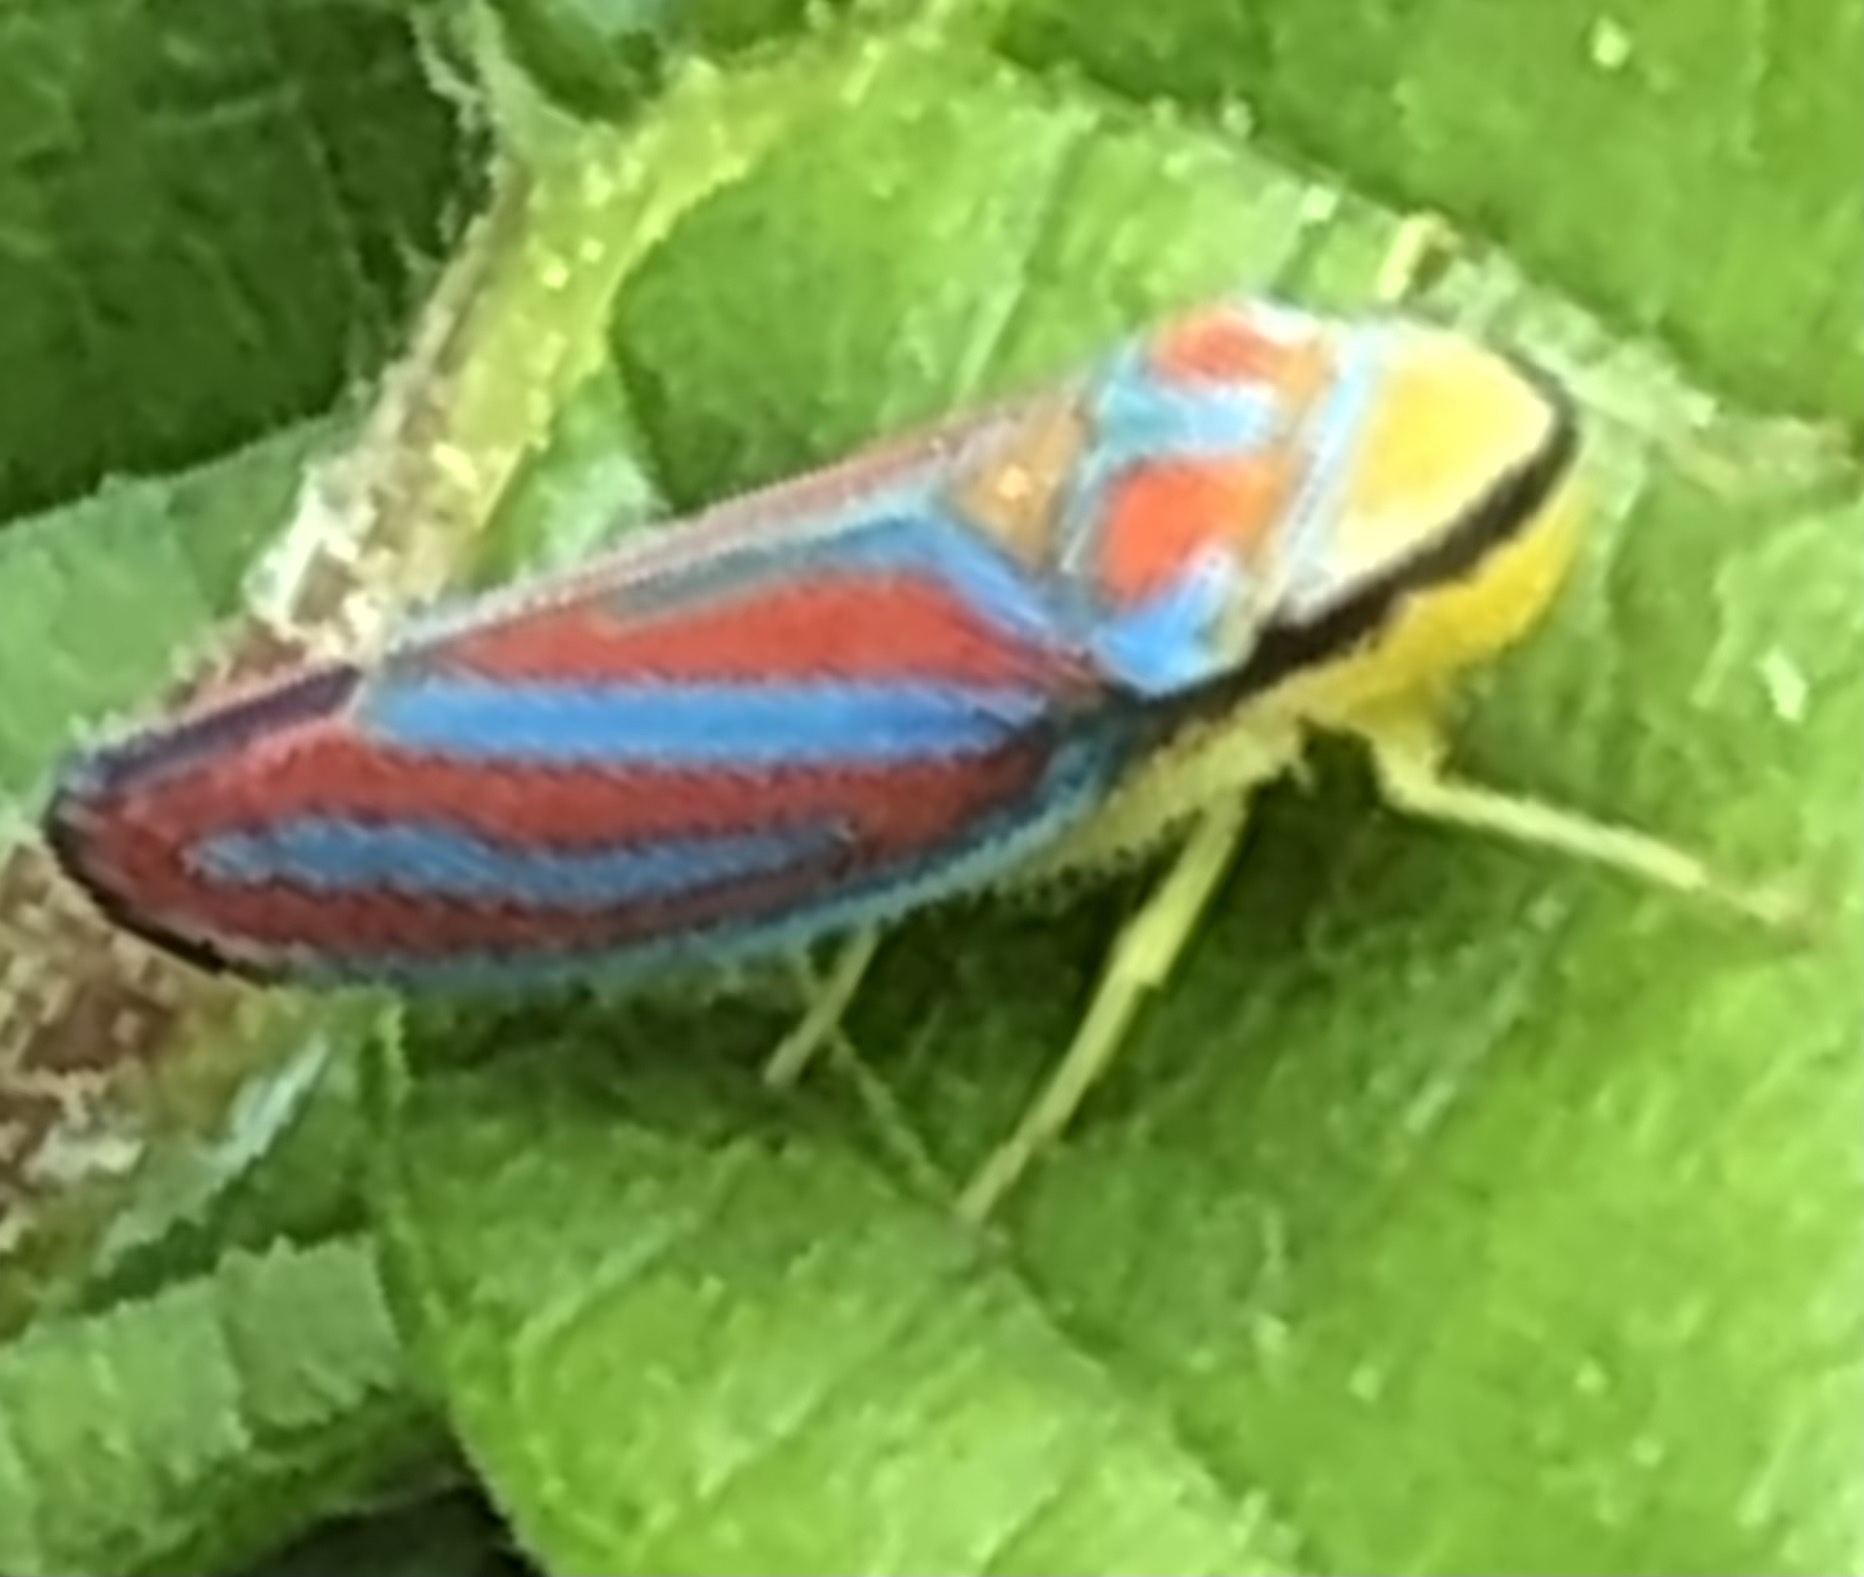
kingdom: Animalia
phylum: Arthropoda
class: Insecta
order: Hemiptera
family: Cicadellidae
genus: Graphocephala
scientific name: Graphocephala coccinea
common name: Candy-striped leafhopper
